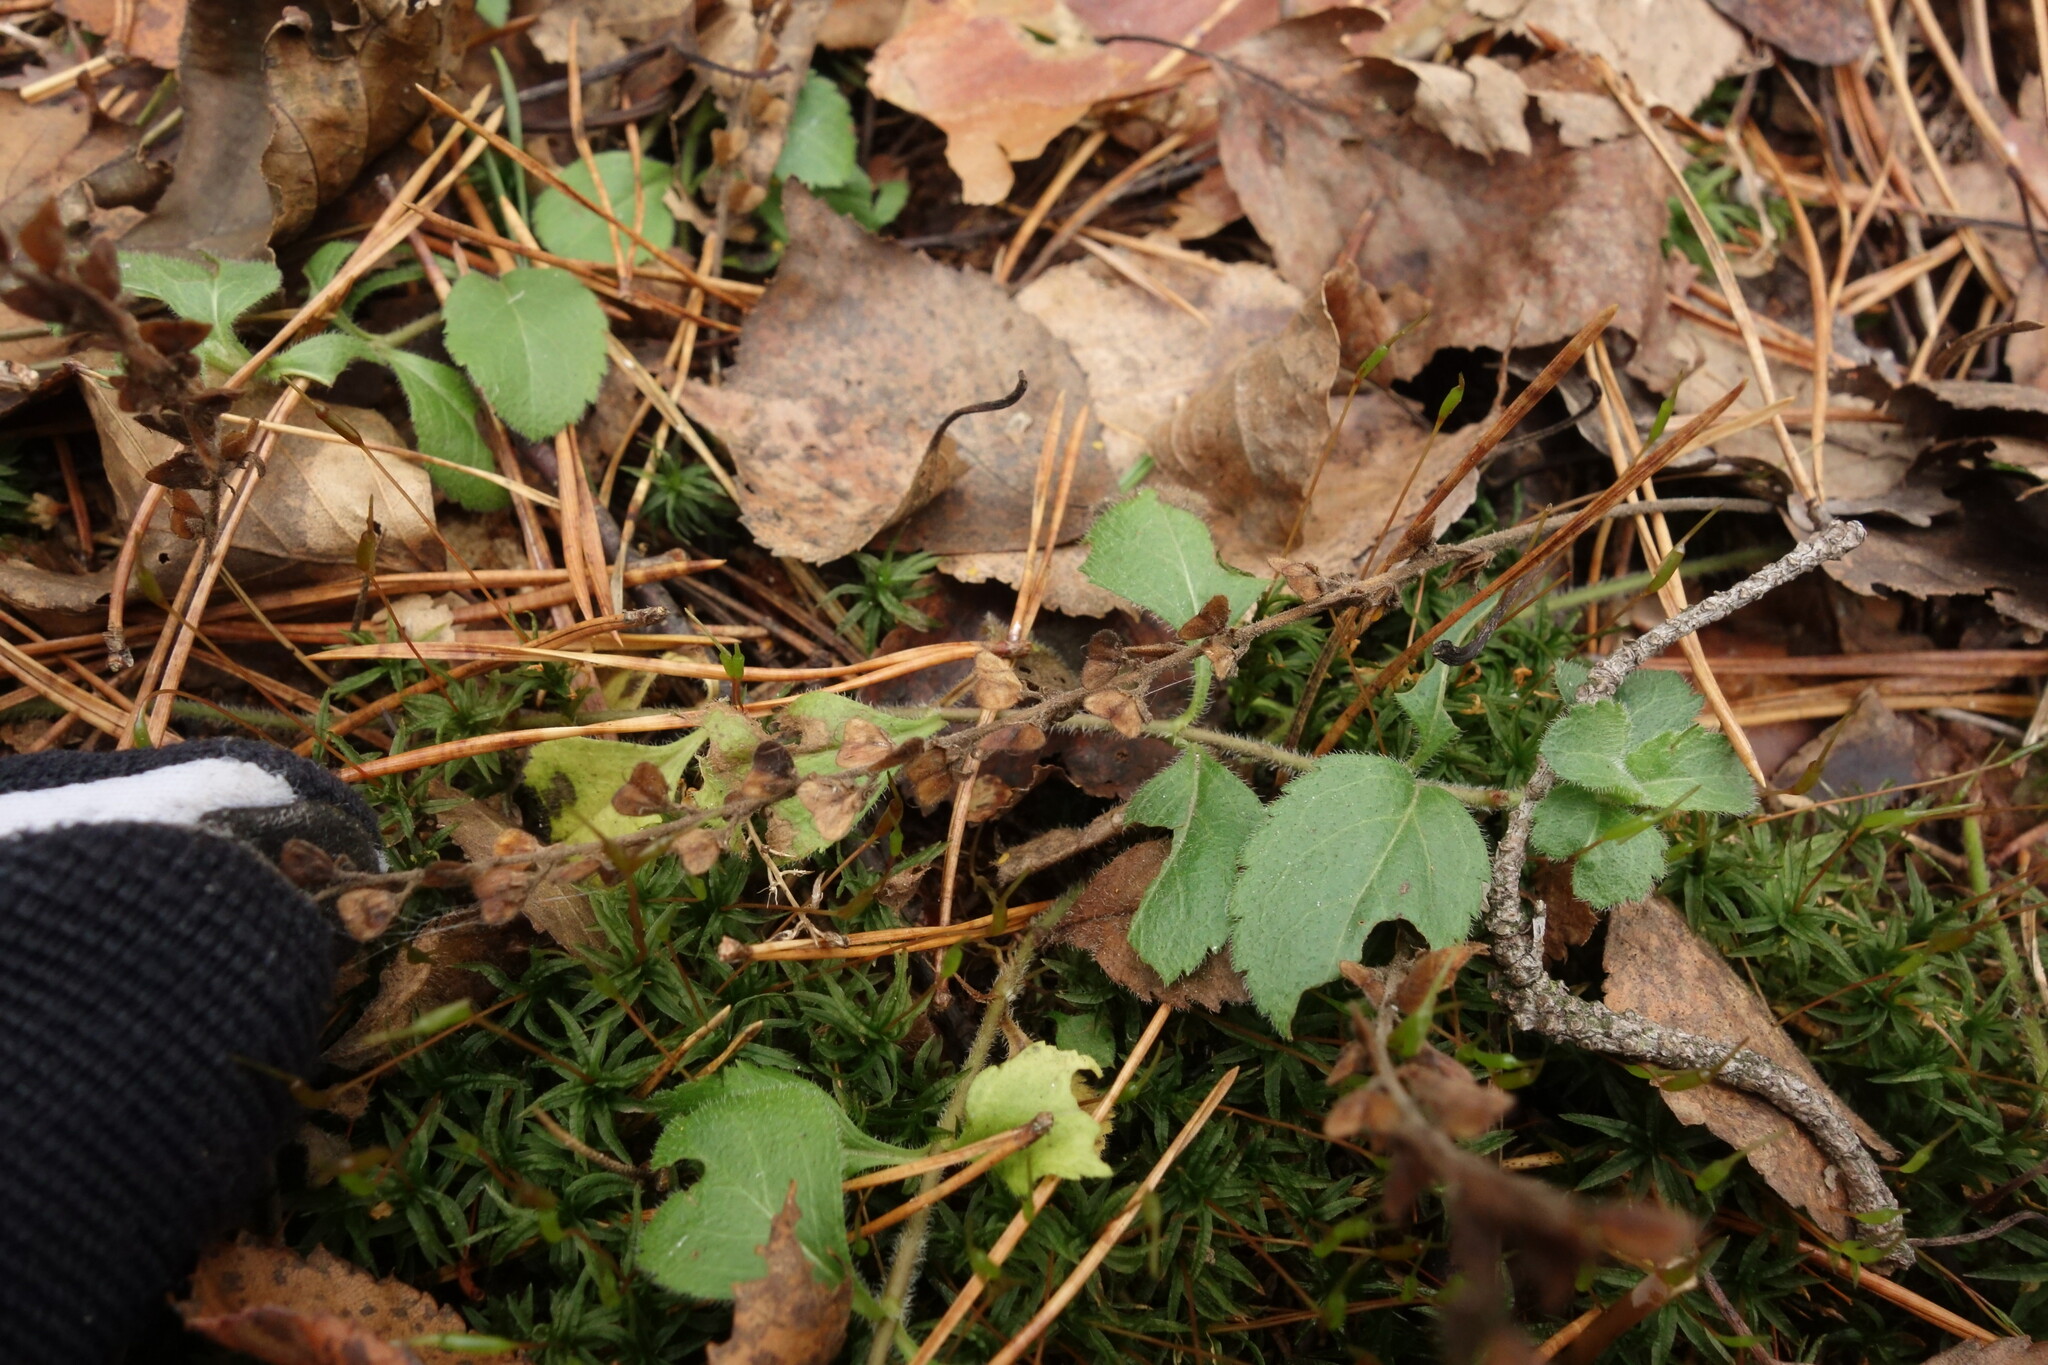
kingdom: Plantae
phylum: Tracheophyta
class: Magnoliopsida
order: Lamiales
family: Plantaginaceae
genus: Veronica
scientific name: Veronica officinalis
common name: Common speedwell
